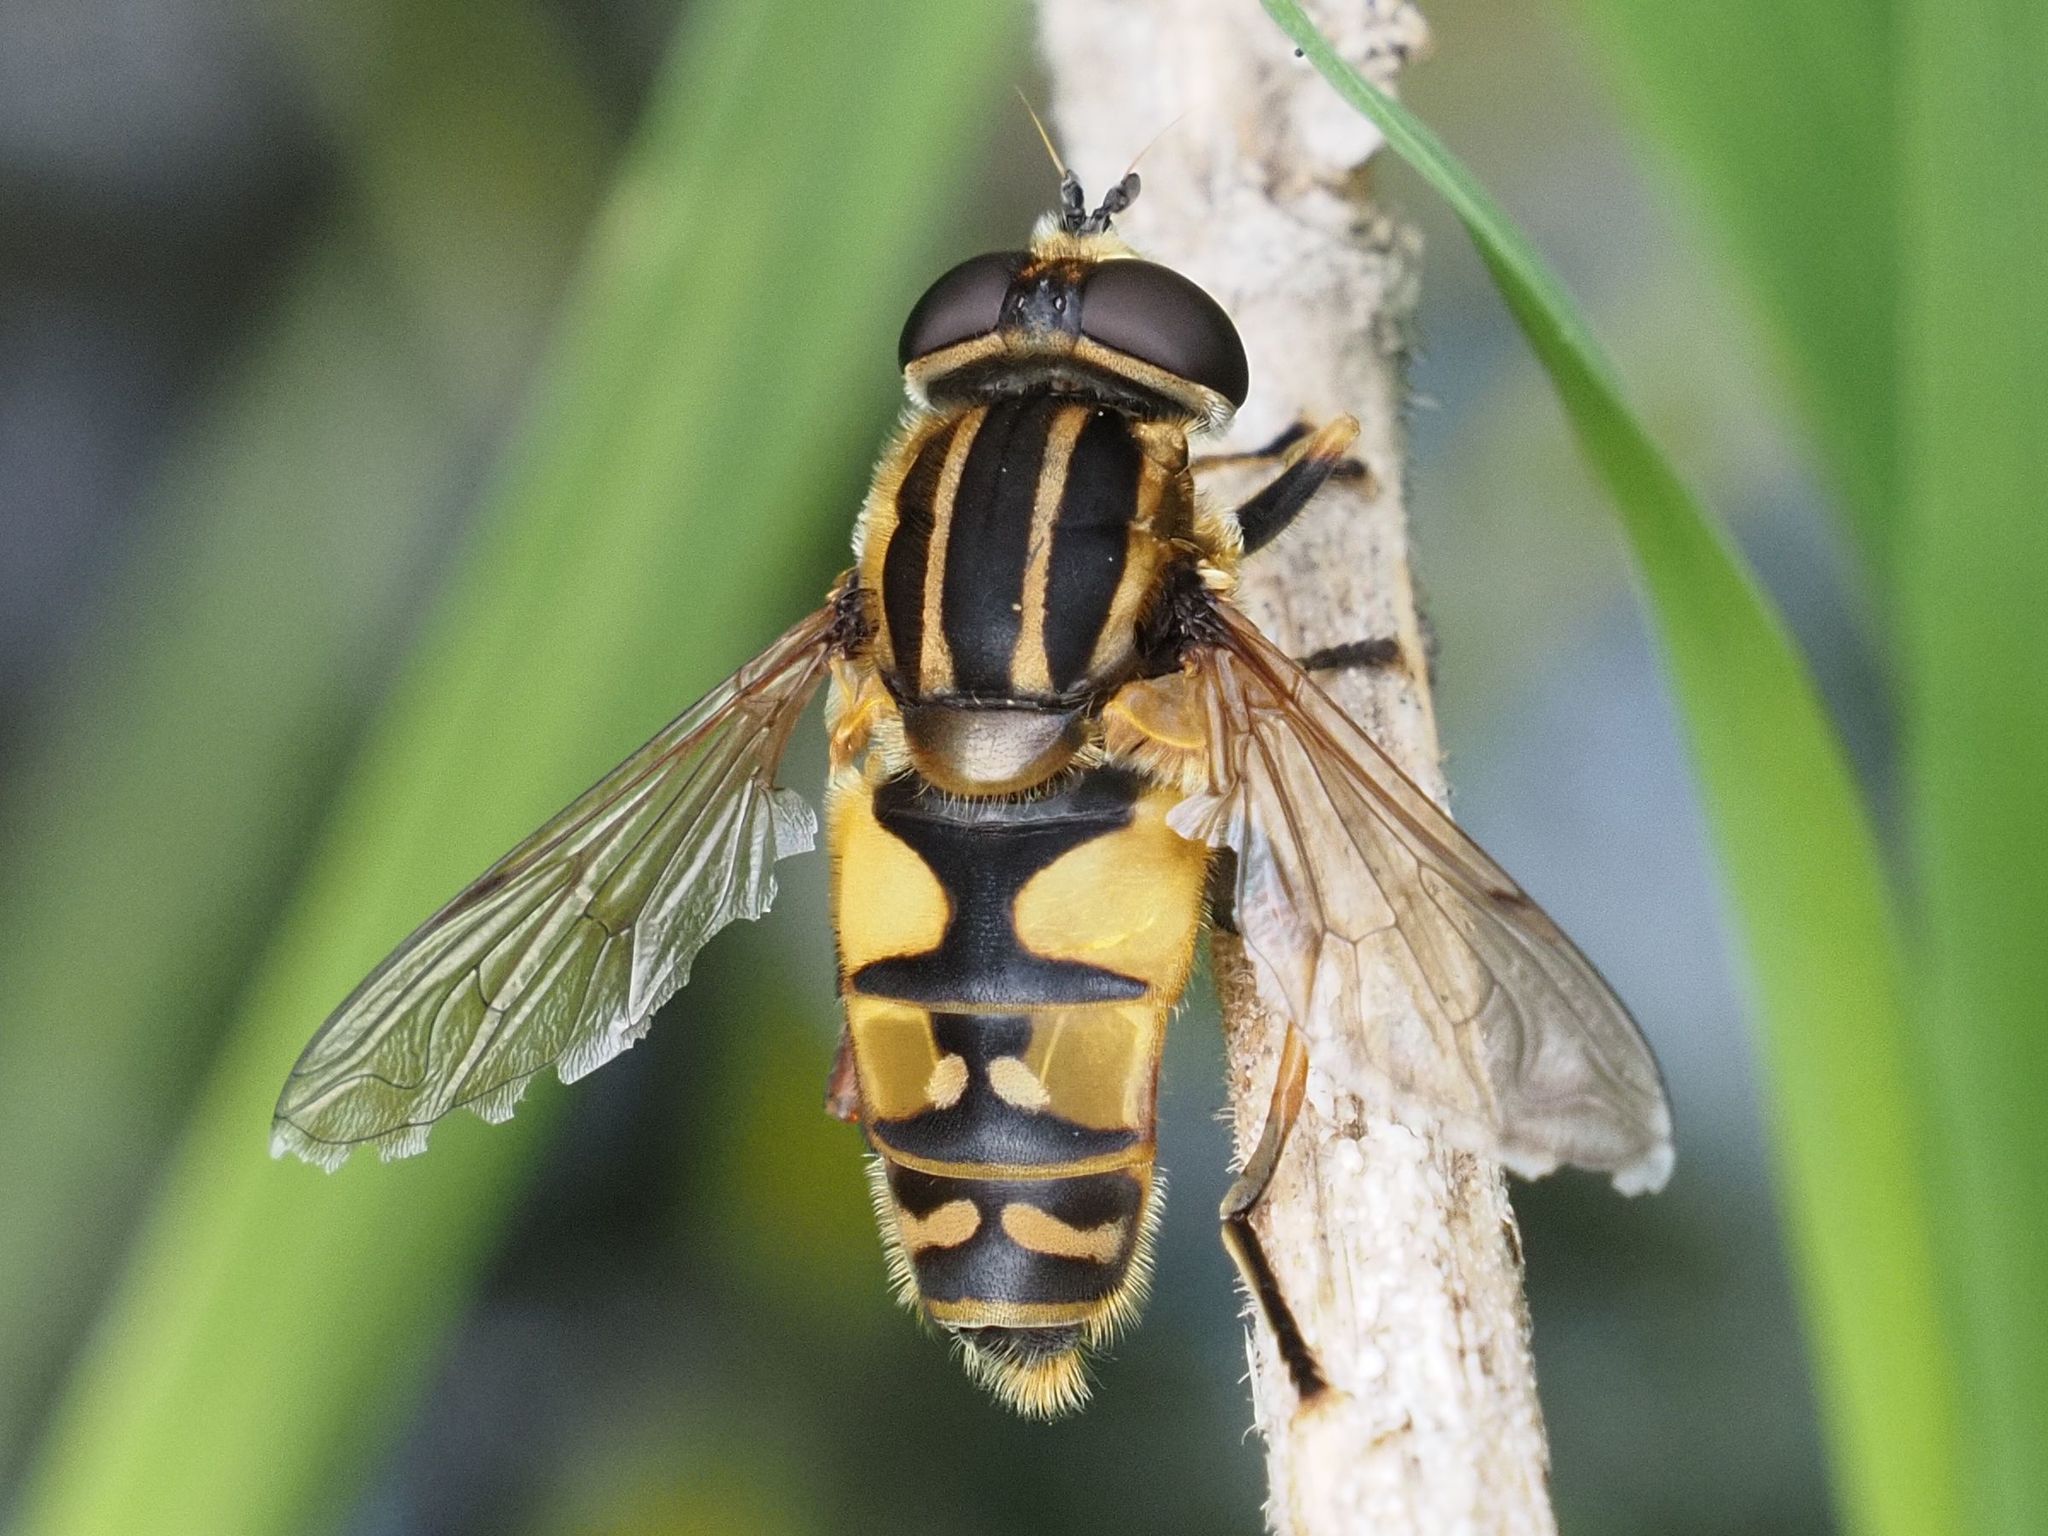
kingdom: Animalia
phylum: Arthropoda
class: Insecta
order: Diptera
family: Syrphidae
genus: Helophilus
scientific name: Helophilus pendulus
